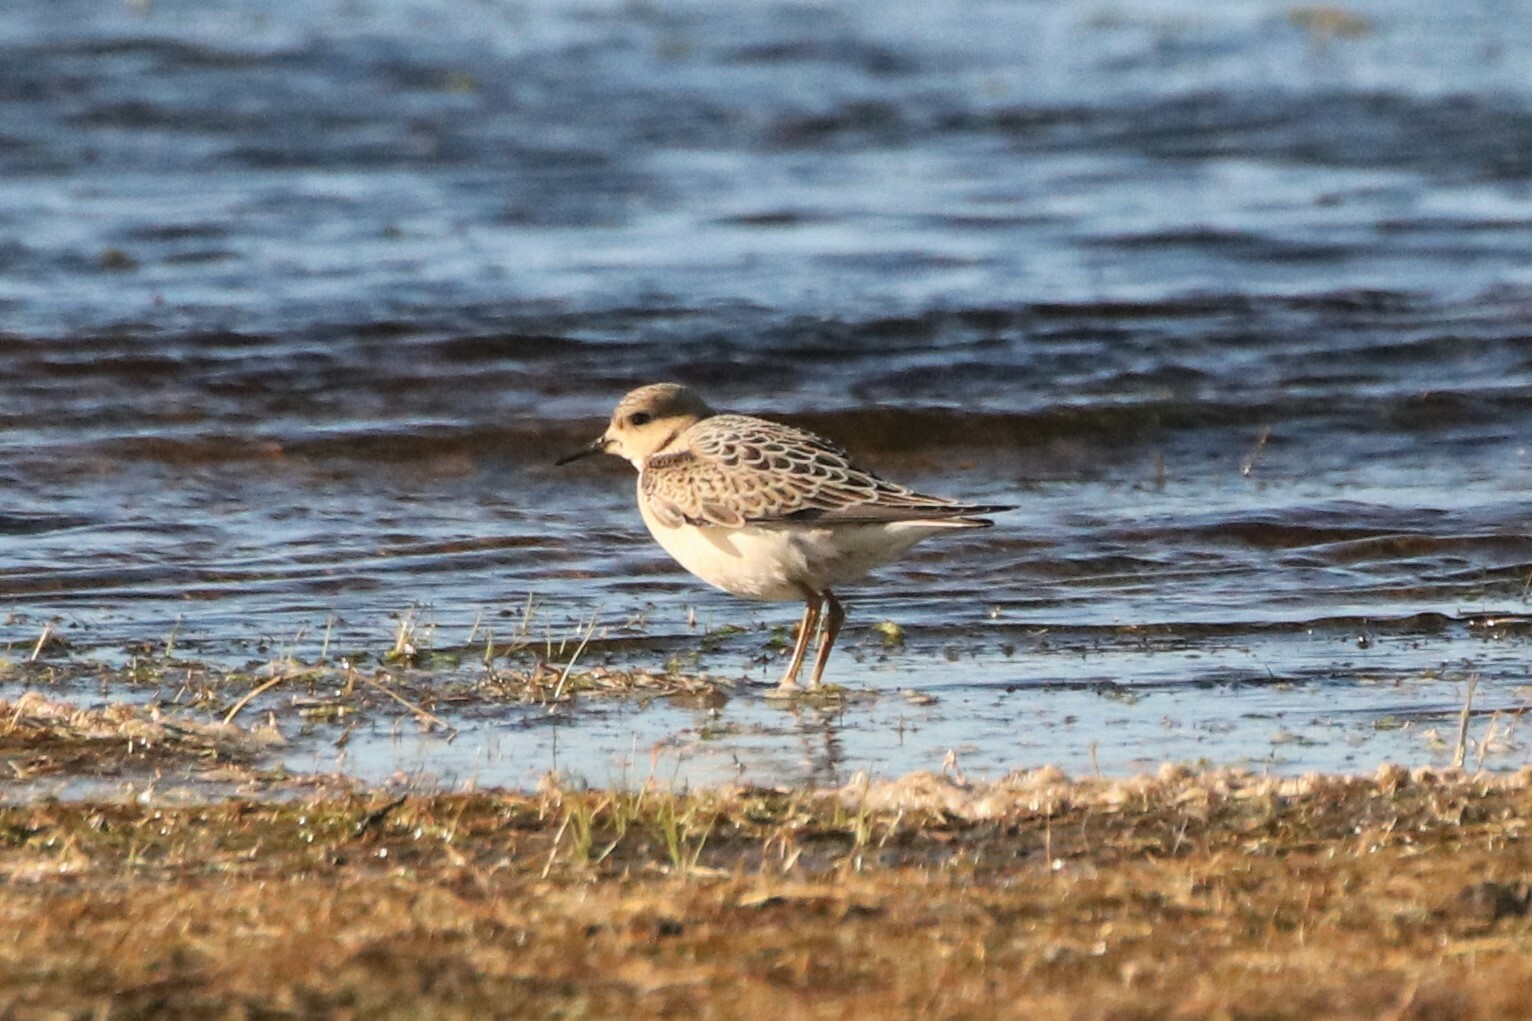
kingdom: Animalia
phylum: Chordata
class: Aves
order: Charadriiformes
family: Scolopacidae
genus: Calidris
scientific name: Calidris subruficollis
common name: Buff-breasted sandpiper
